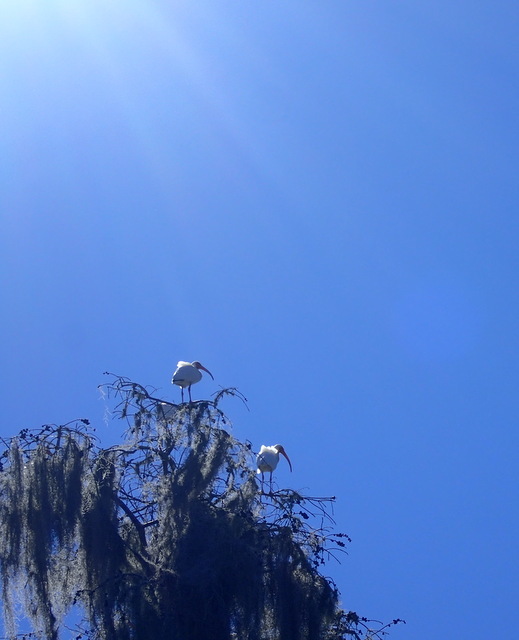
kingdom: Animalia
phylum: Chordata
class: Aves
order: Pelecaniformes
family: Threskiornithidae
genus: Eudocimus
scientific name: Eudocimus albus
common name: White ibis
